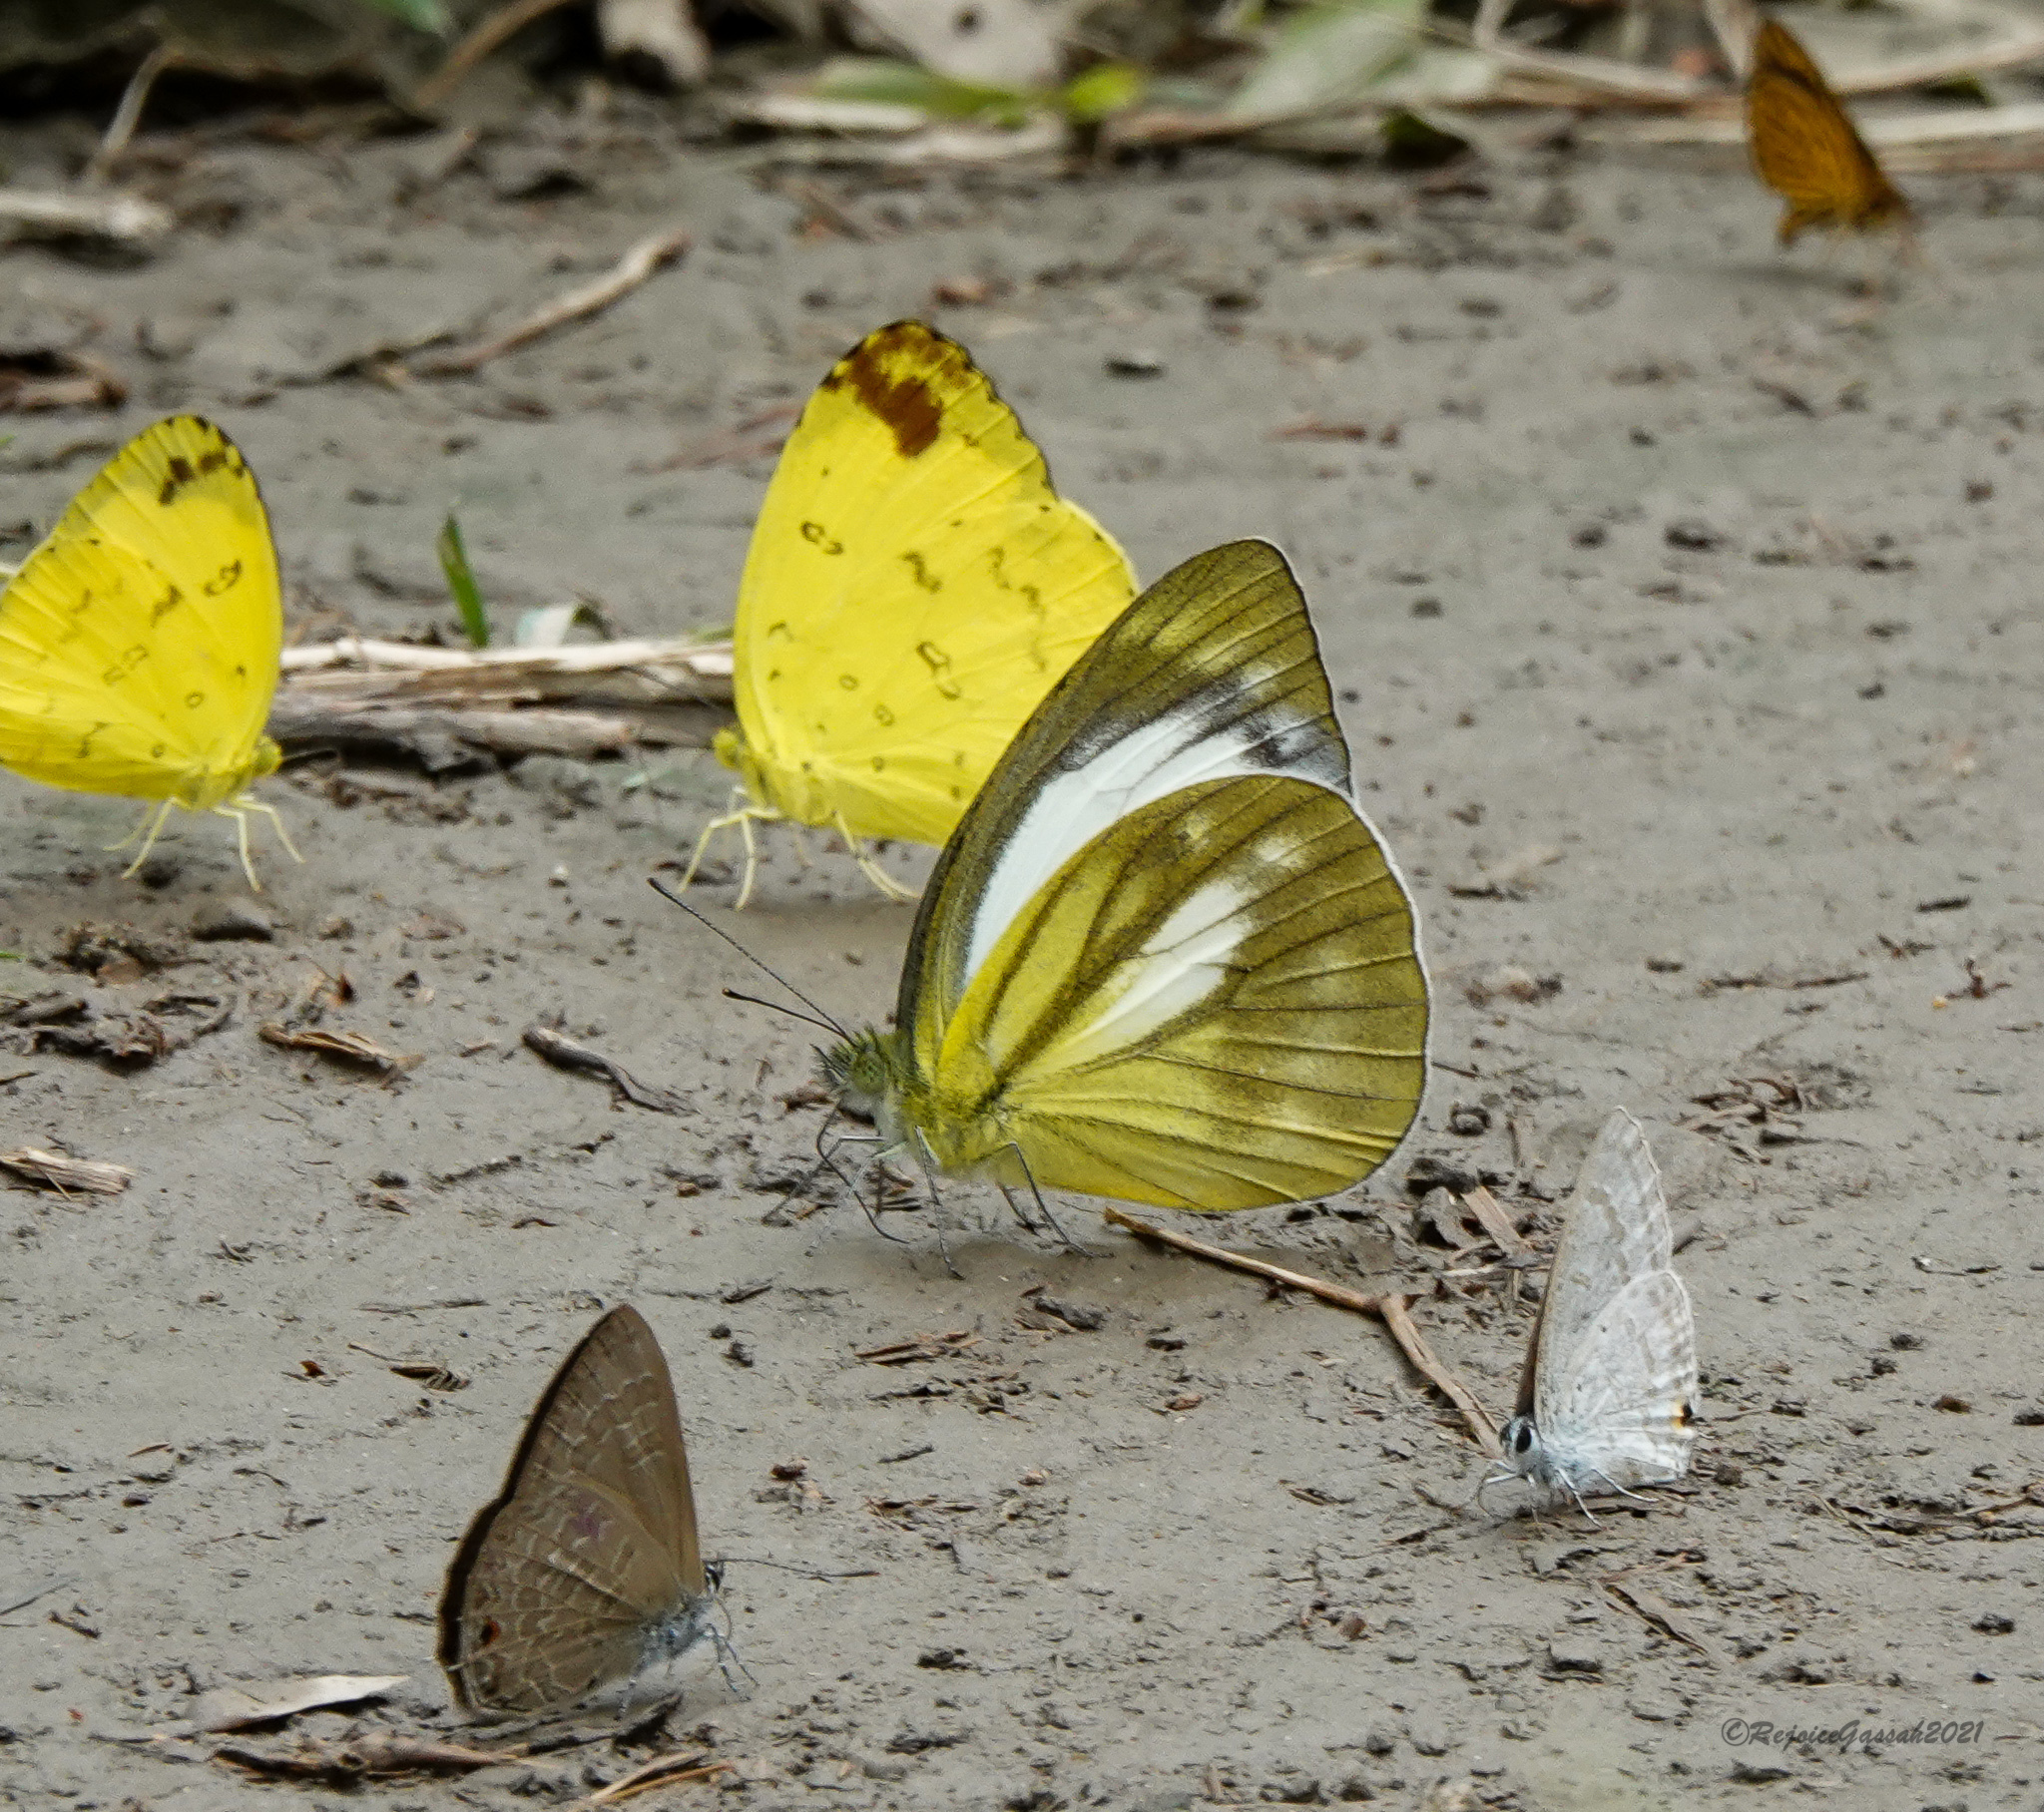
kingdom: Animalia
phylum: Arthropoda
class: Insecta
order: Lepidoptera
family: Pieridae
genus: Cepora
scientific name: Cepora nadina
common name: Lesser gull
